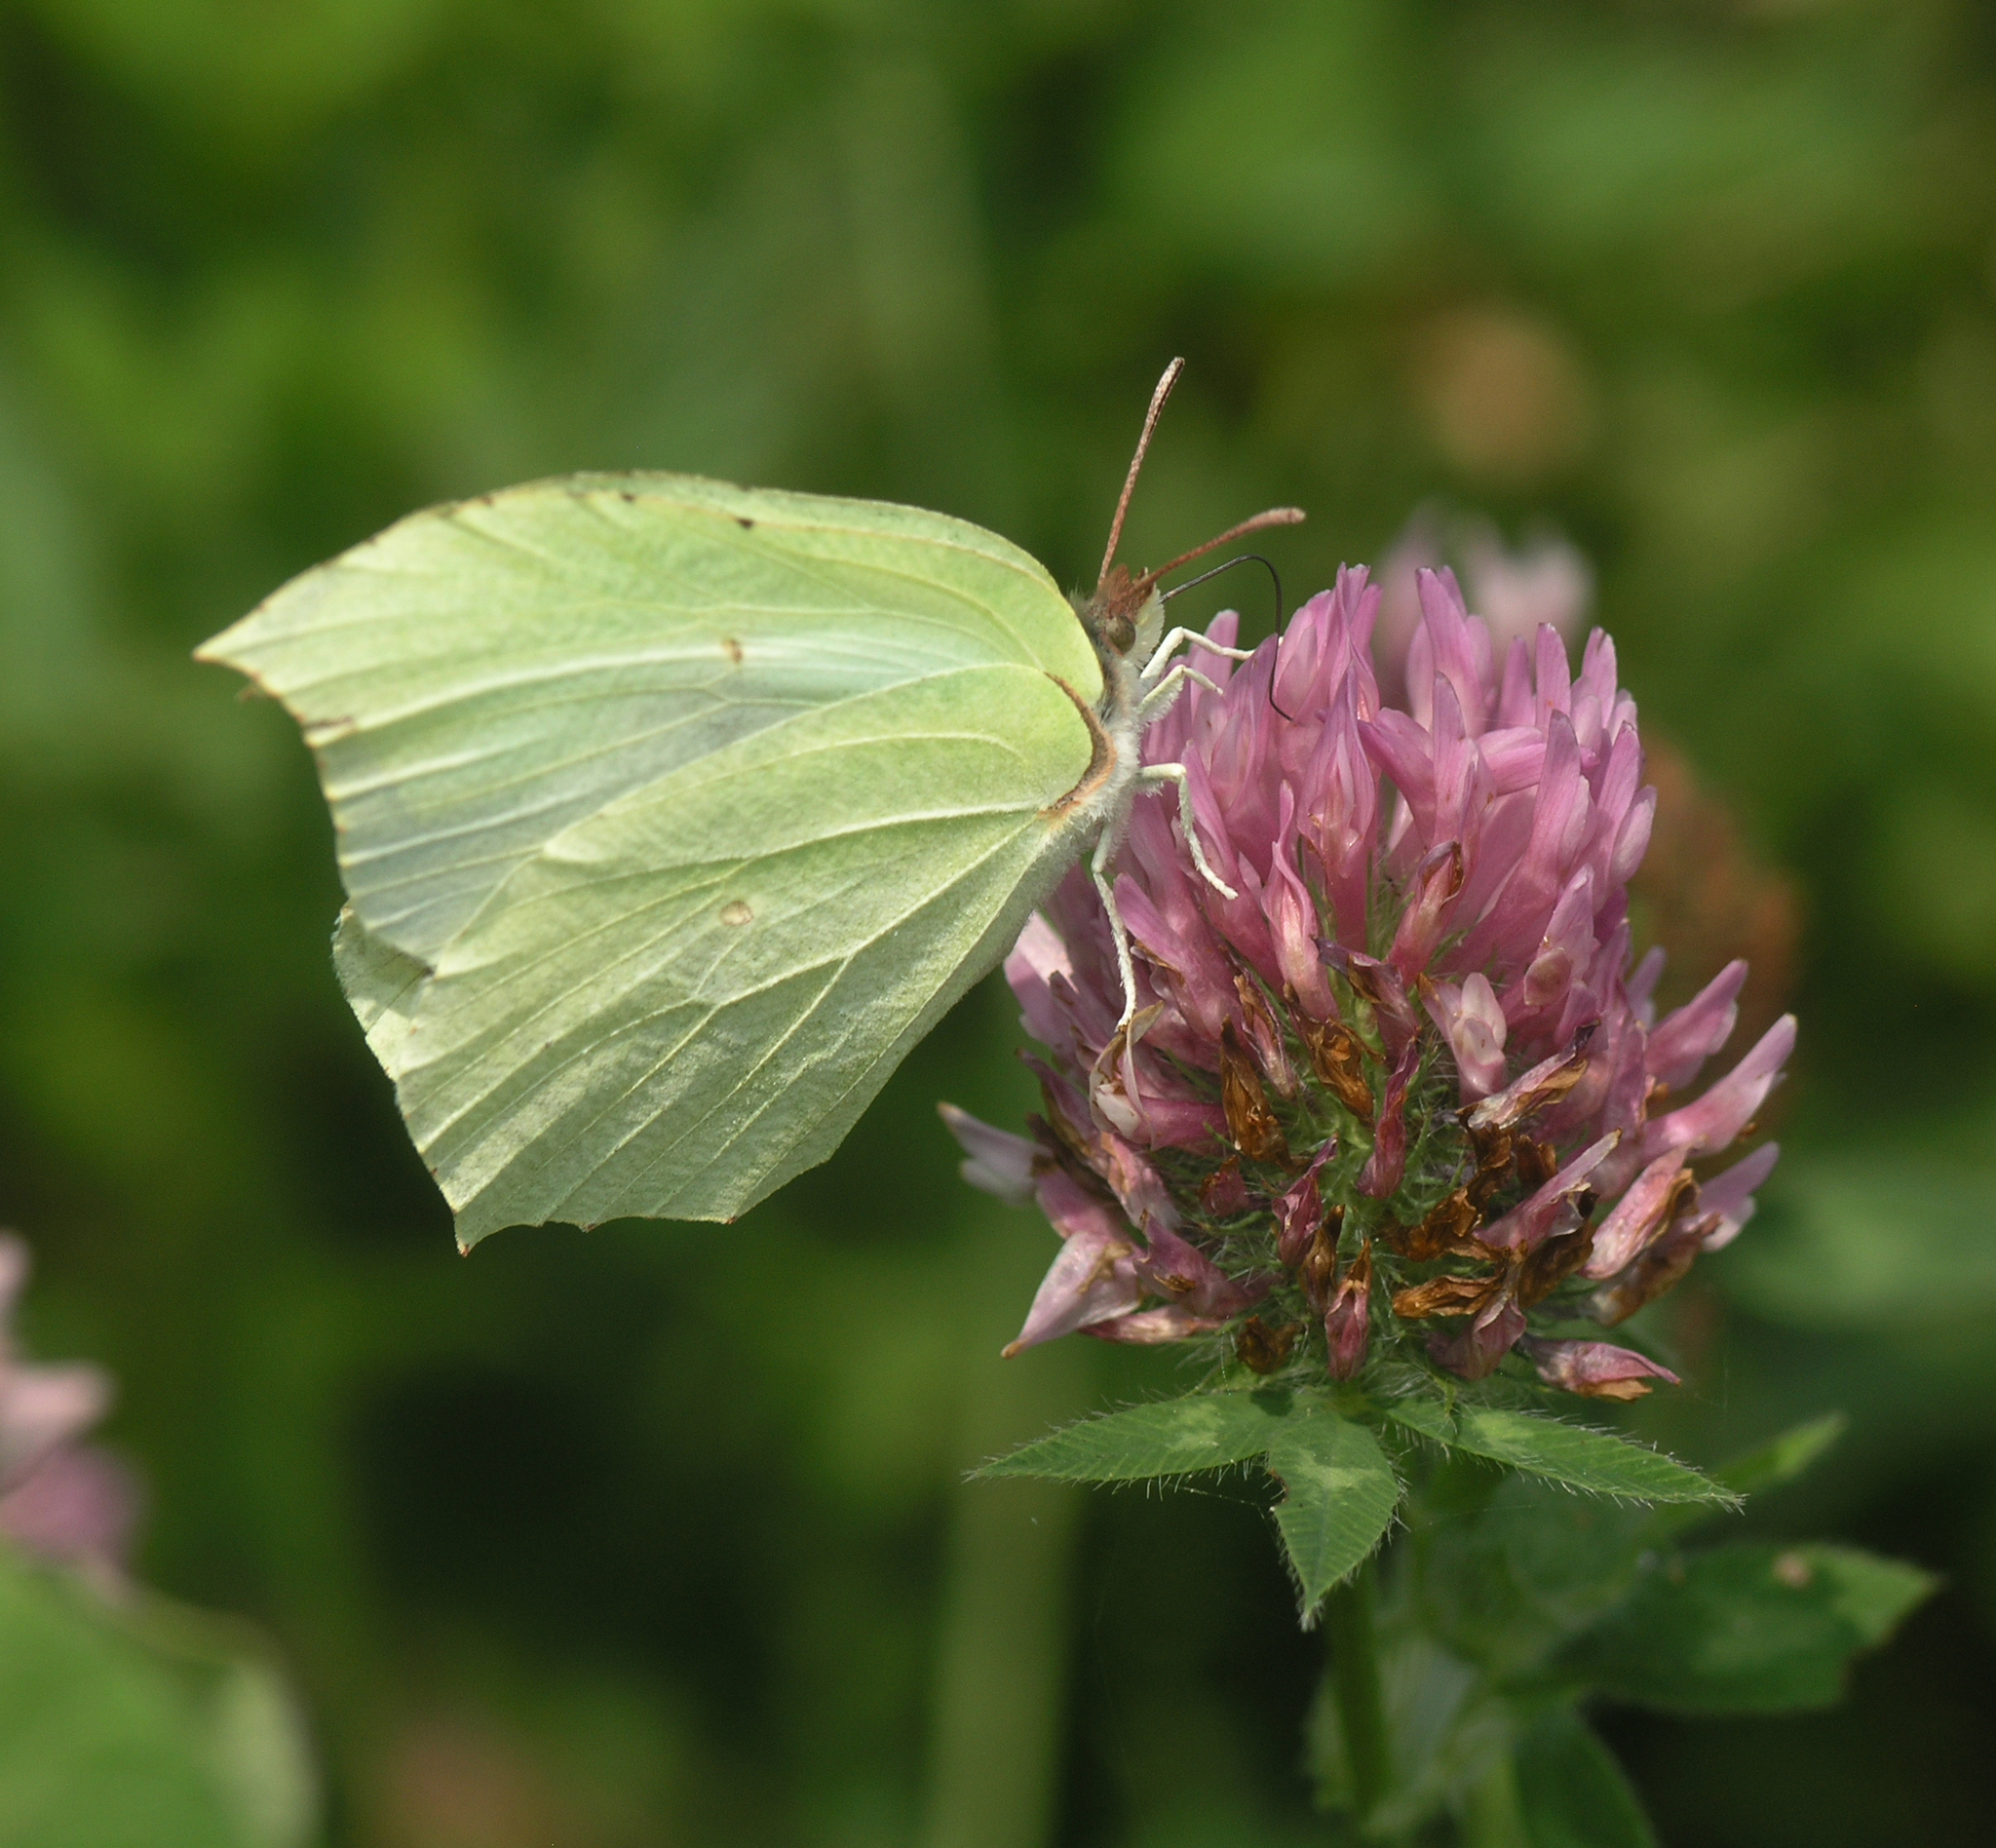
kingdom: Animalia
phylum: Arthropoda
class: Insecta
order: Lepidoptera
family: Pieridae
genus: Gonepteryx
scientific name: Gonepteryx aspasia
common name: Lesser brimstone
